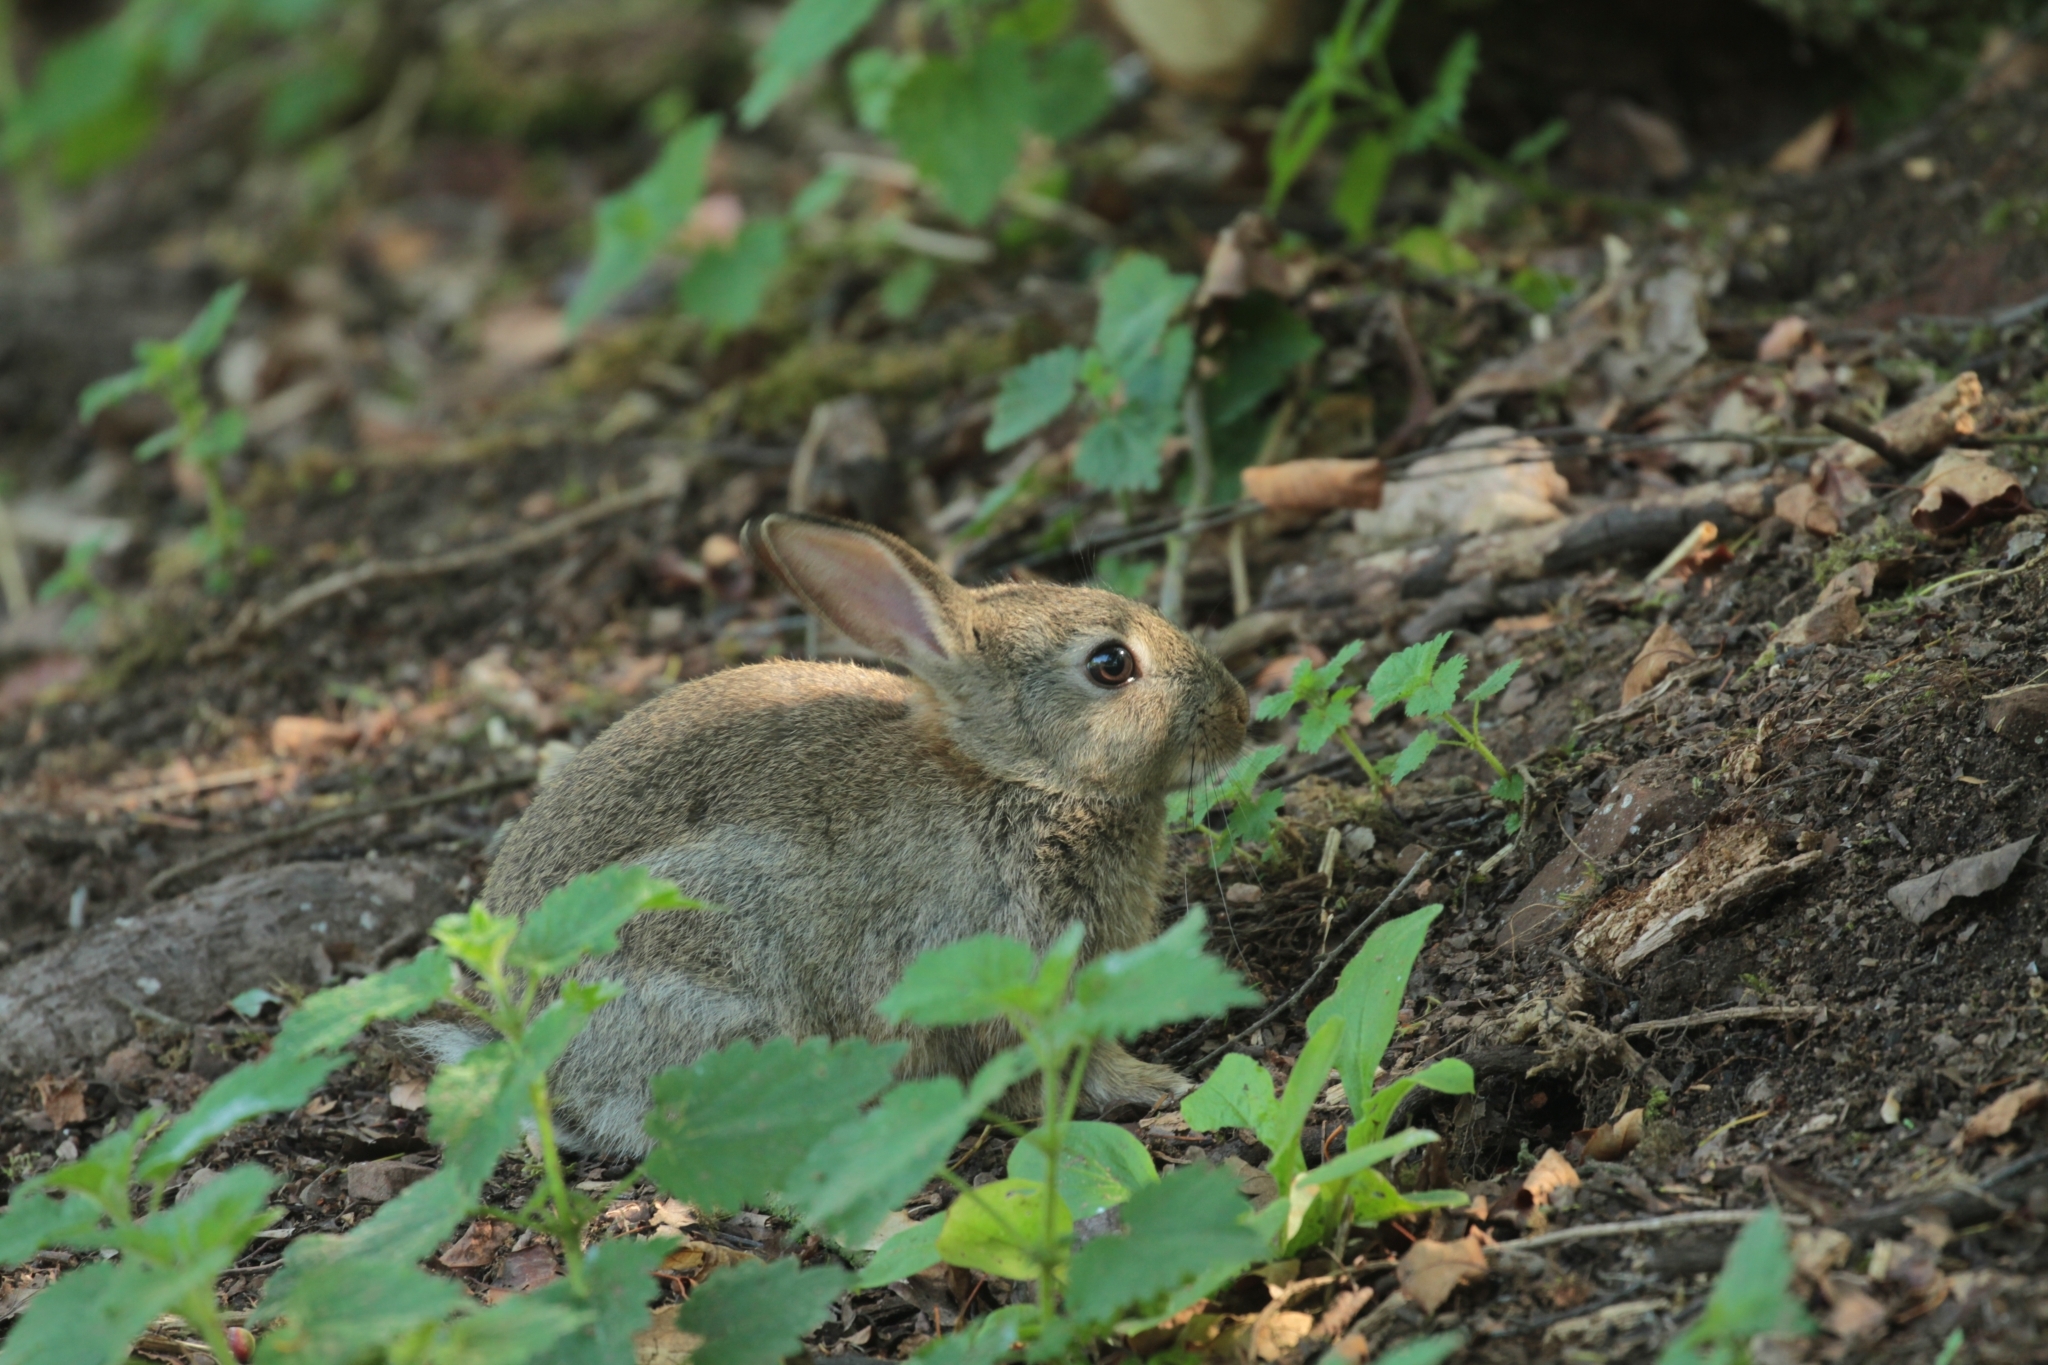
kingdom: Animalia
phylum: Chordata
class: Mammalia
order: Lagomorpha
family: Leporidae
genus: Oryctolagus
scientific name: Oryctolagus cuniculus
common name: European rabbit
